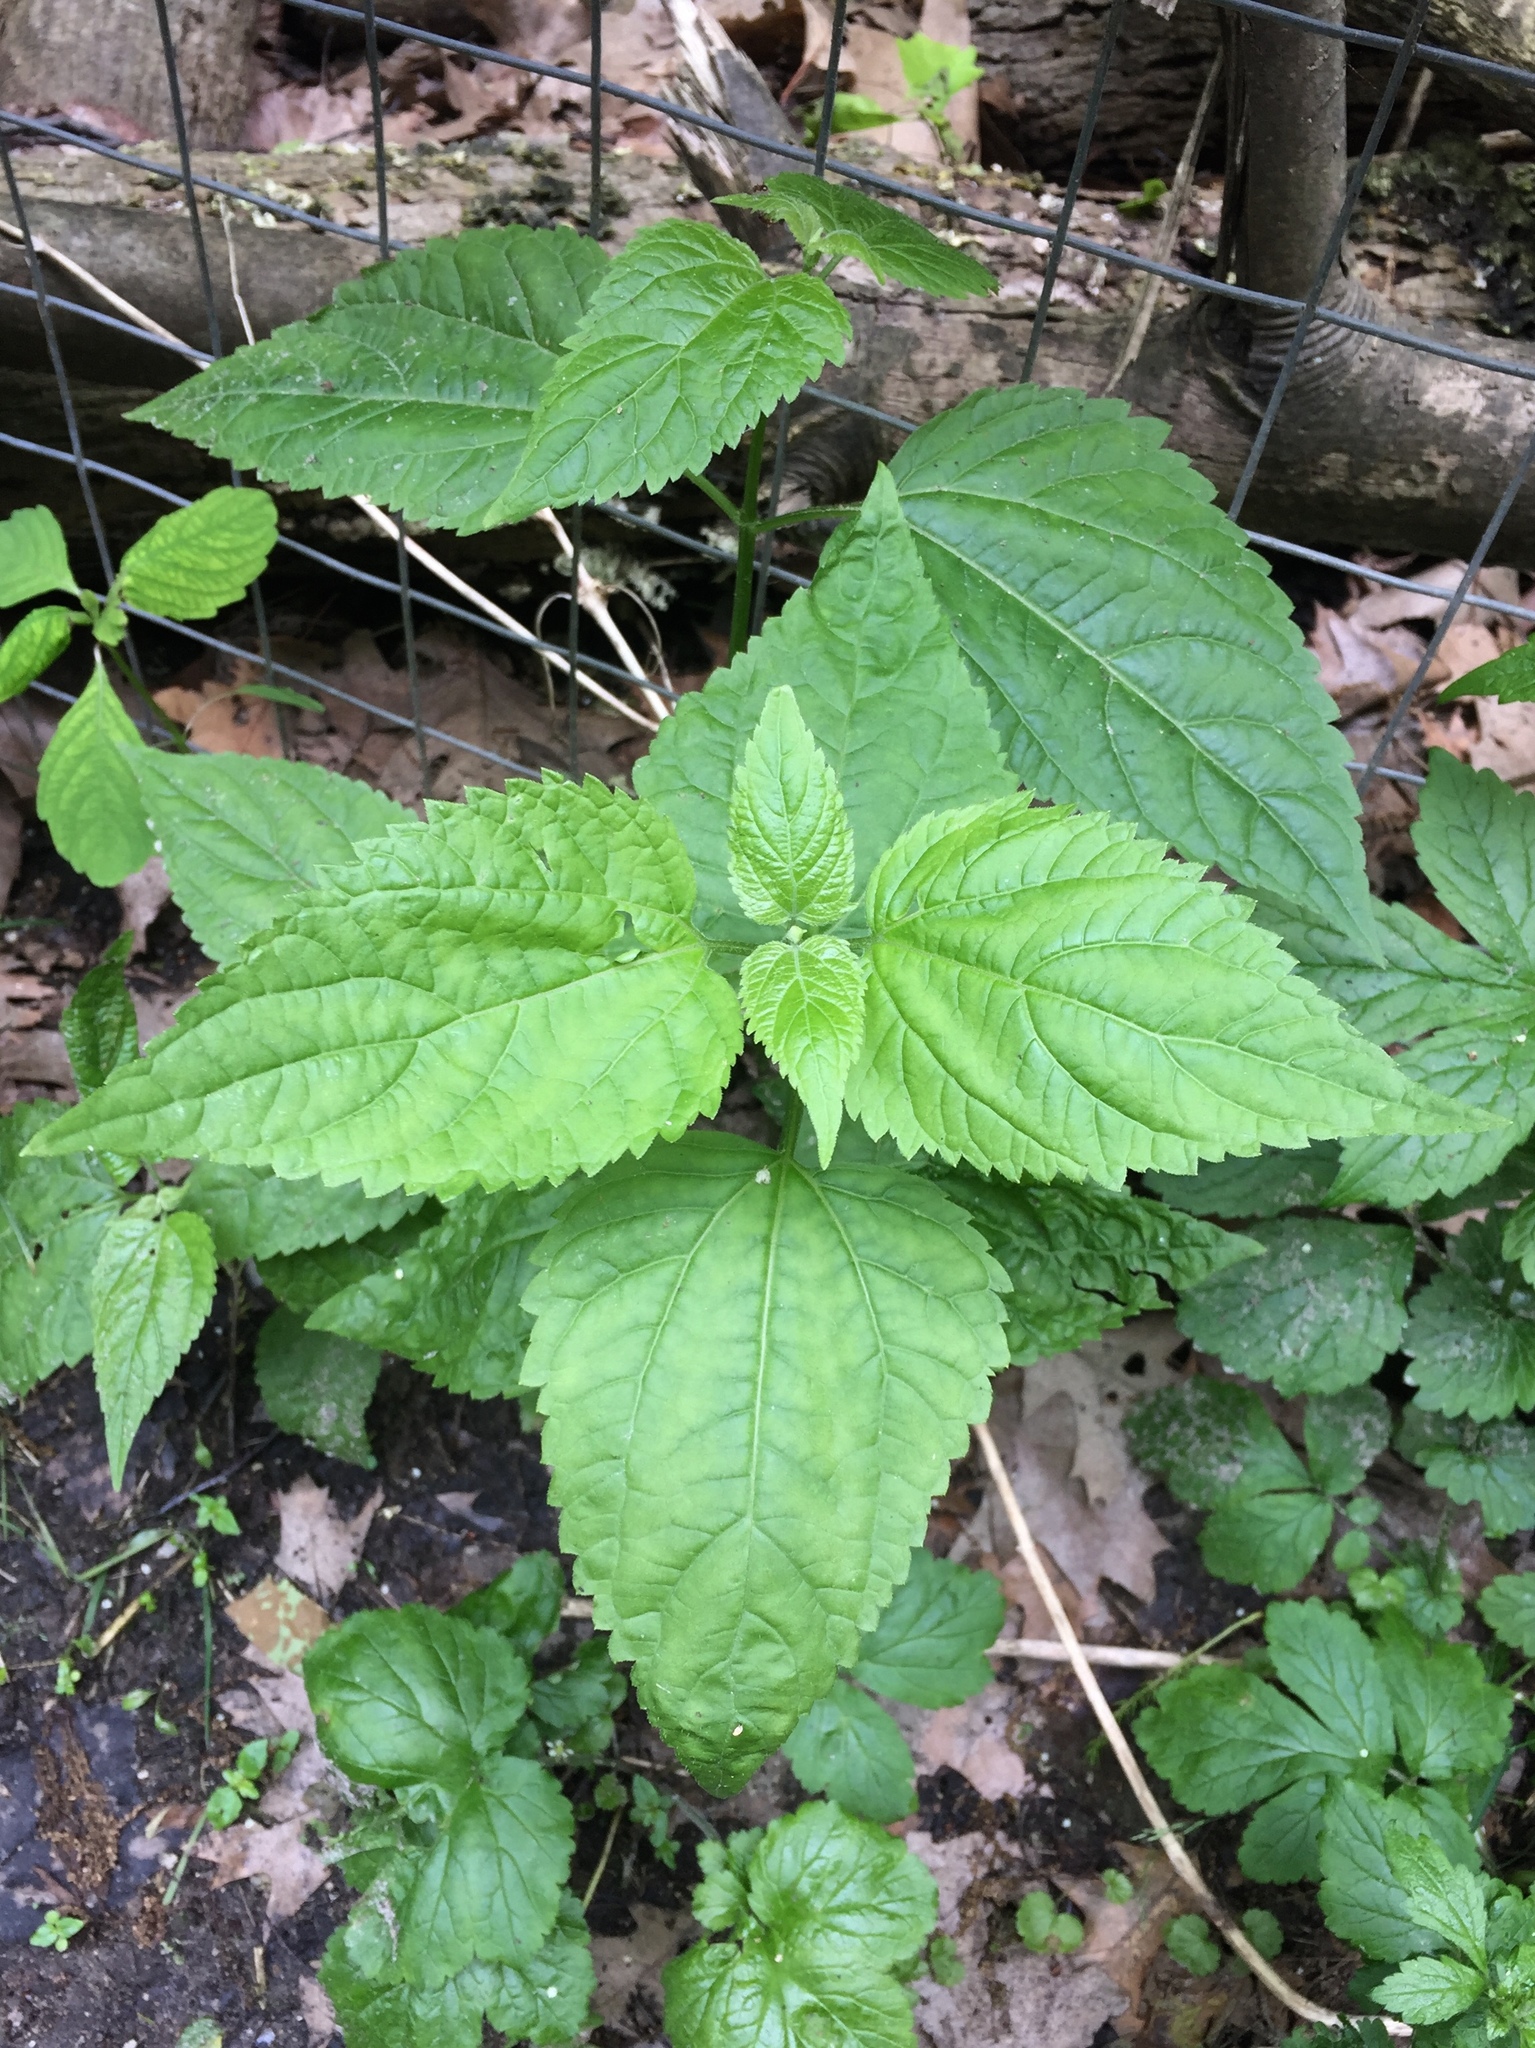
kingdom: Plantae
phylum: Tracheophyta
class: Magnoliopsida
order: Rosales
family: Urticaceae
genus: Boehmeria
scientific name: Boehmeria cylindrica
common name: Bog-hemp
